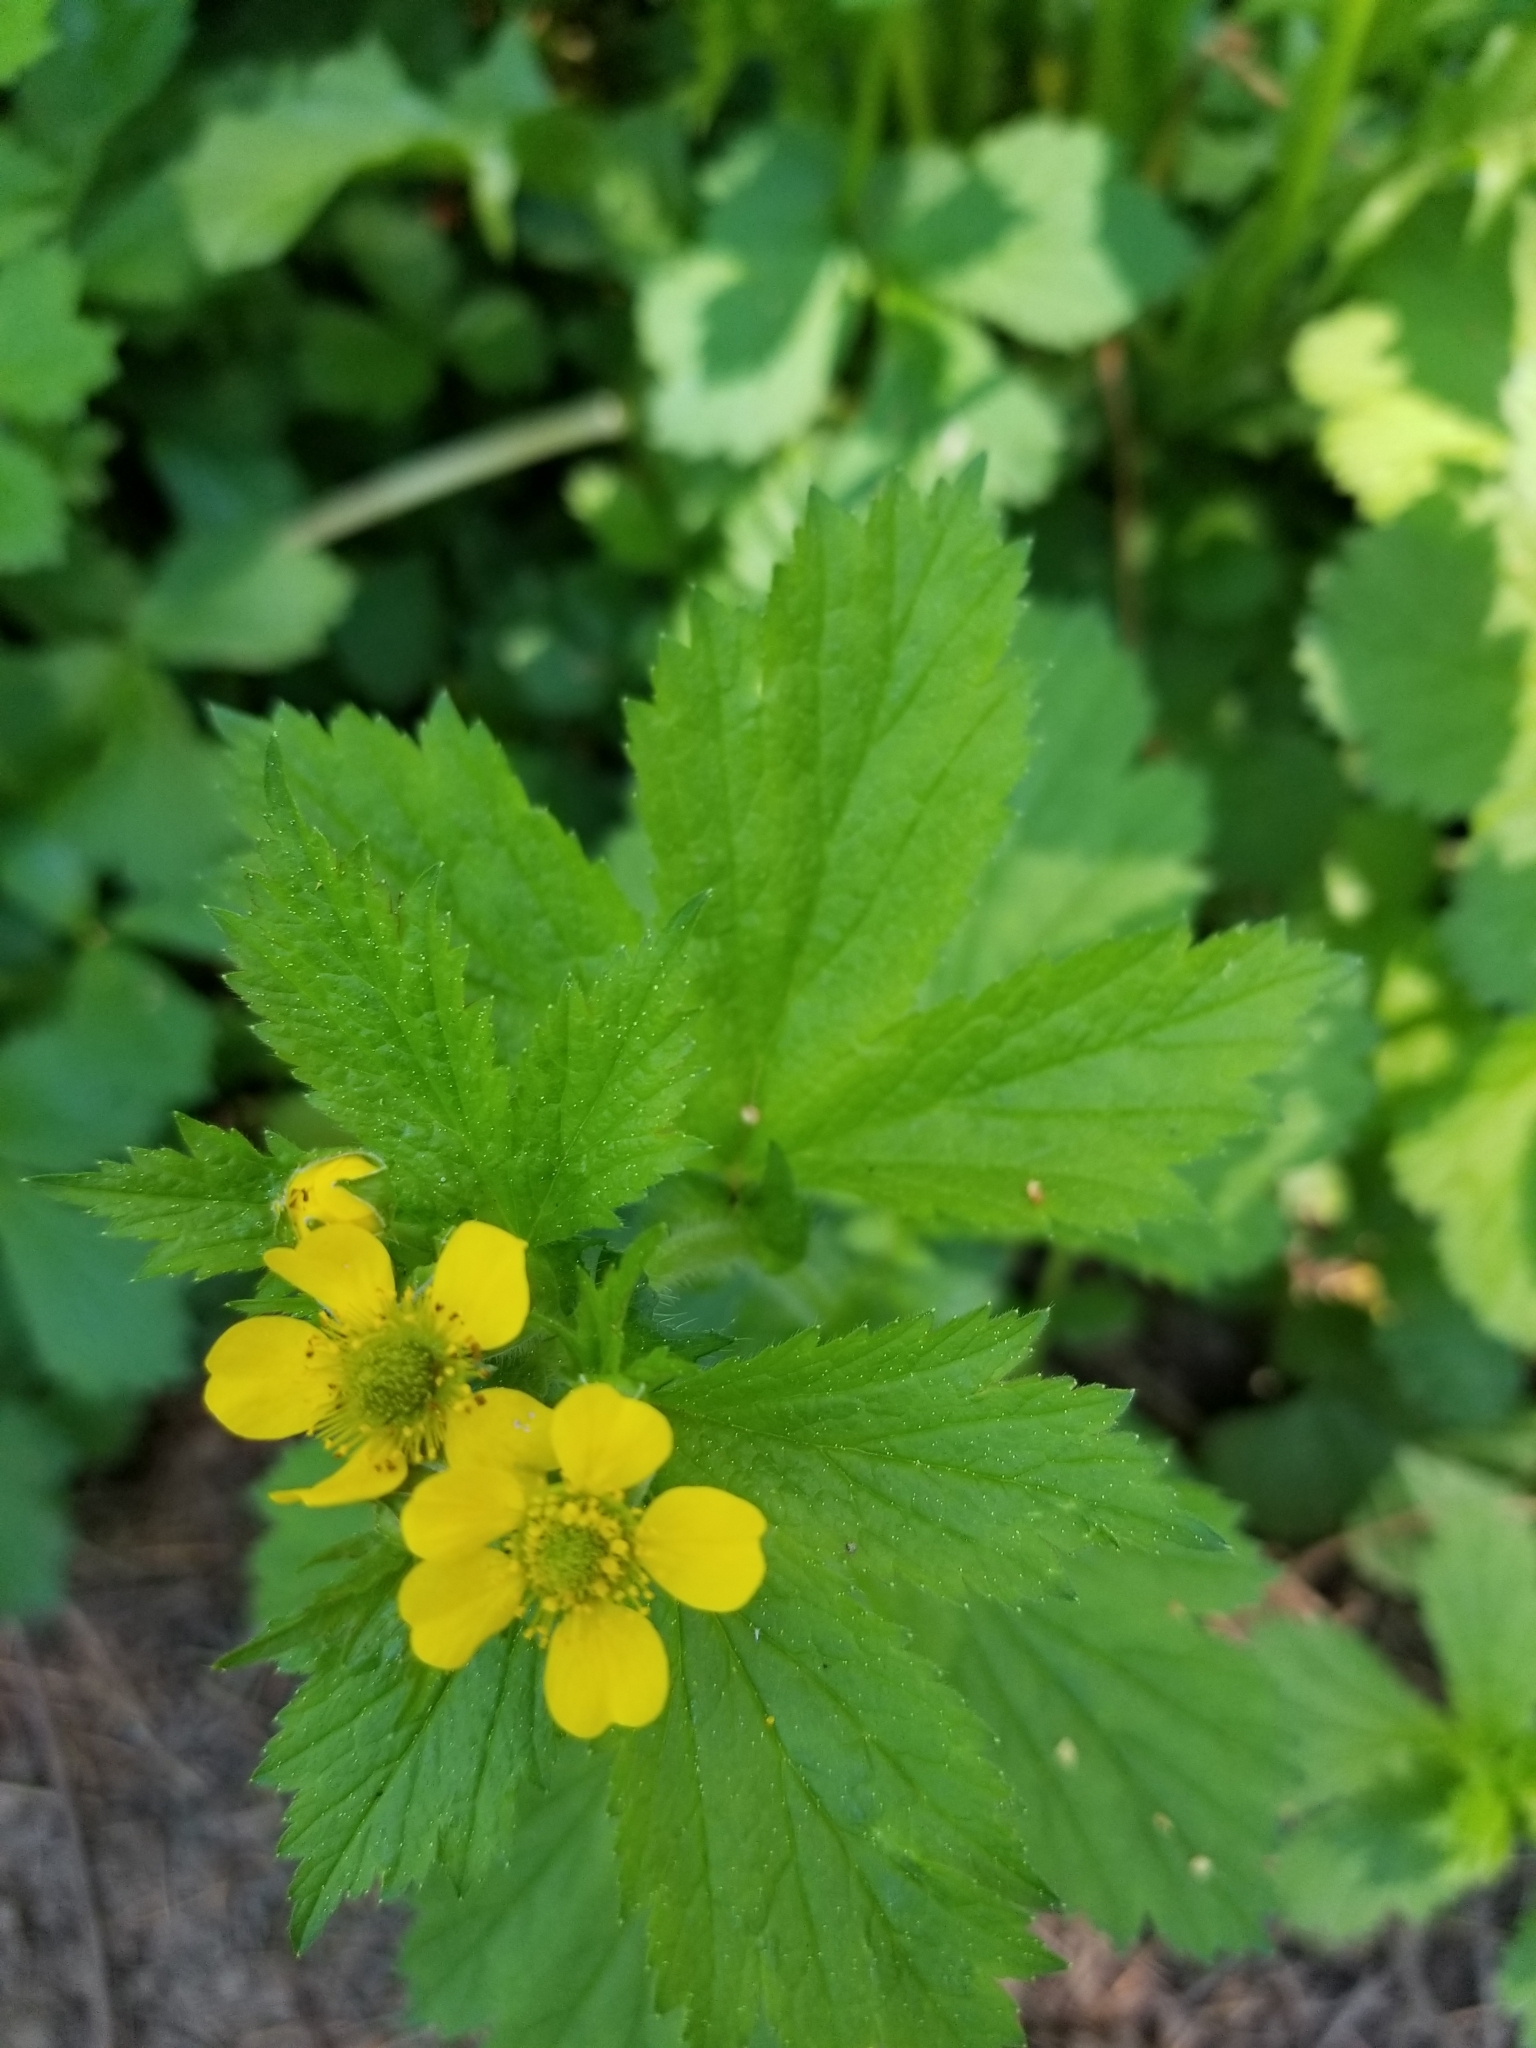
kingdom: Plantae
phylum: Tracheophyta
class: Magnoliopsida
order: Rosales
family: Rosaceae
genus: Geum
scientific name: Geum macrophyllum
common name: Large-leaved avens
